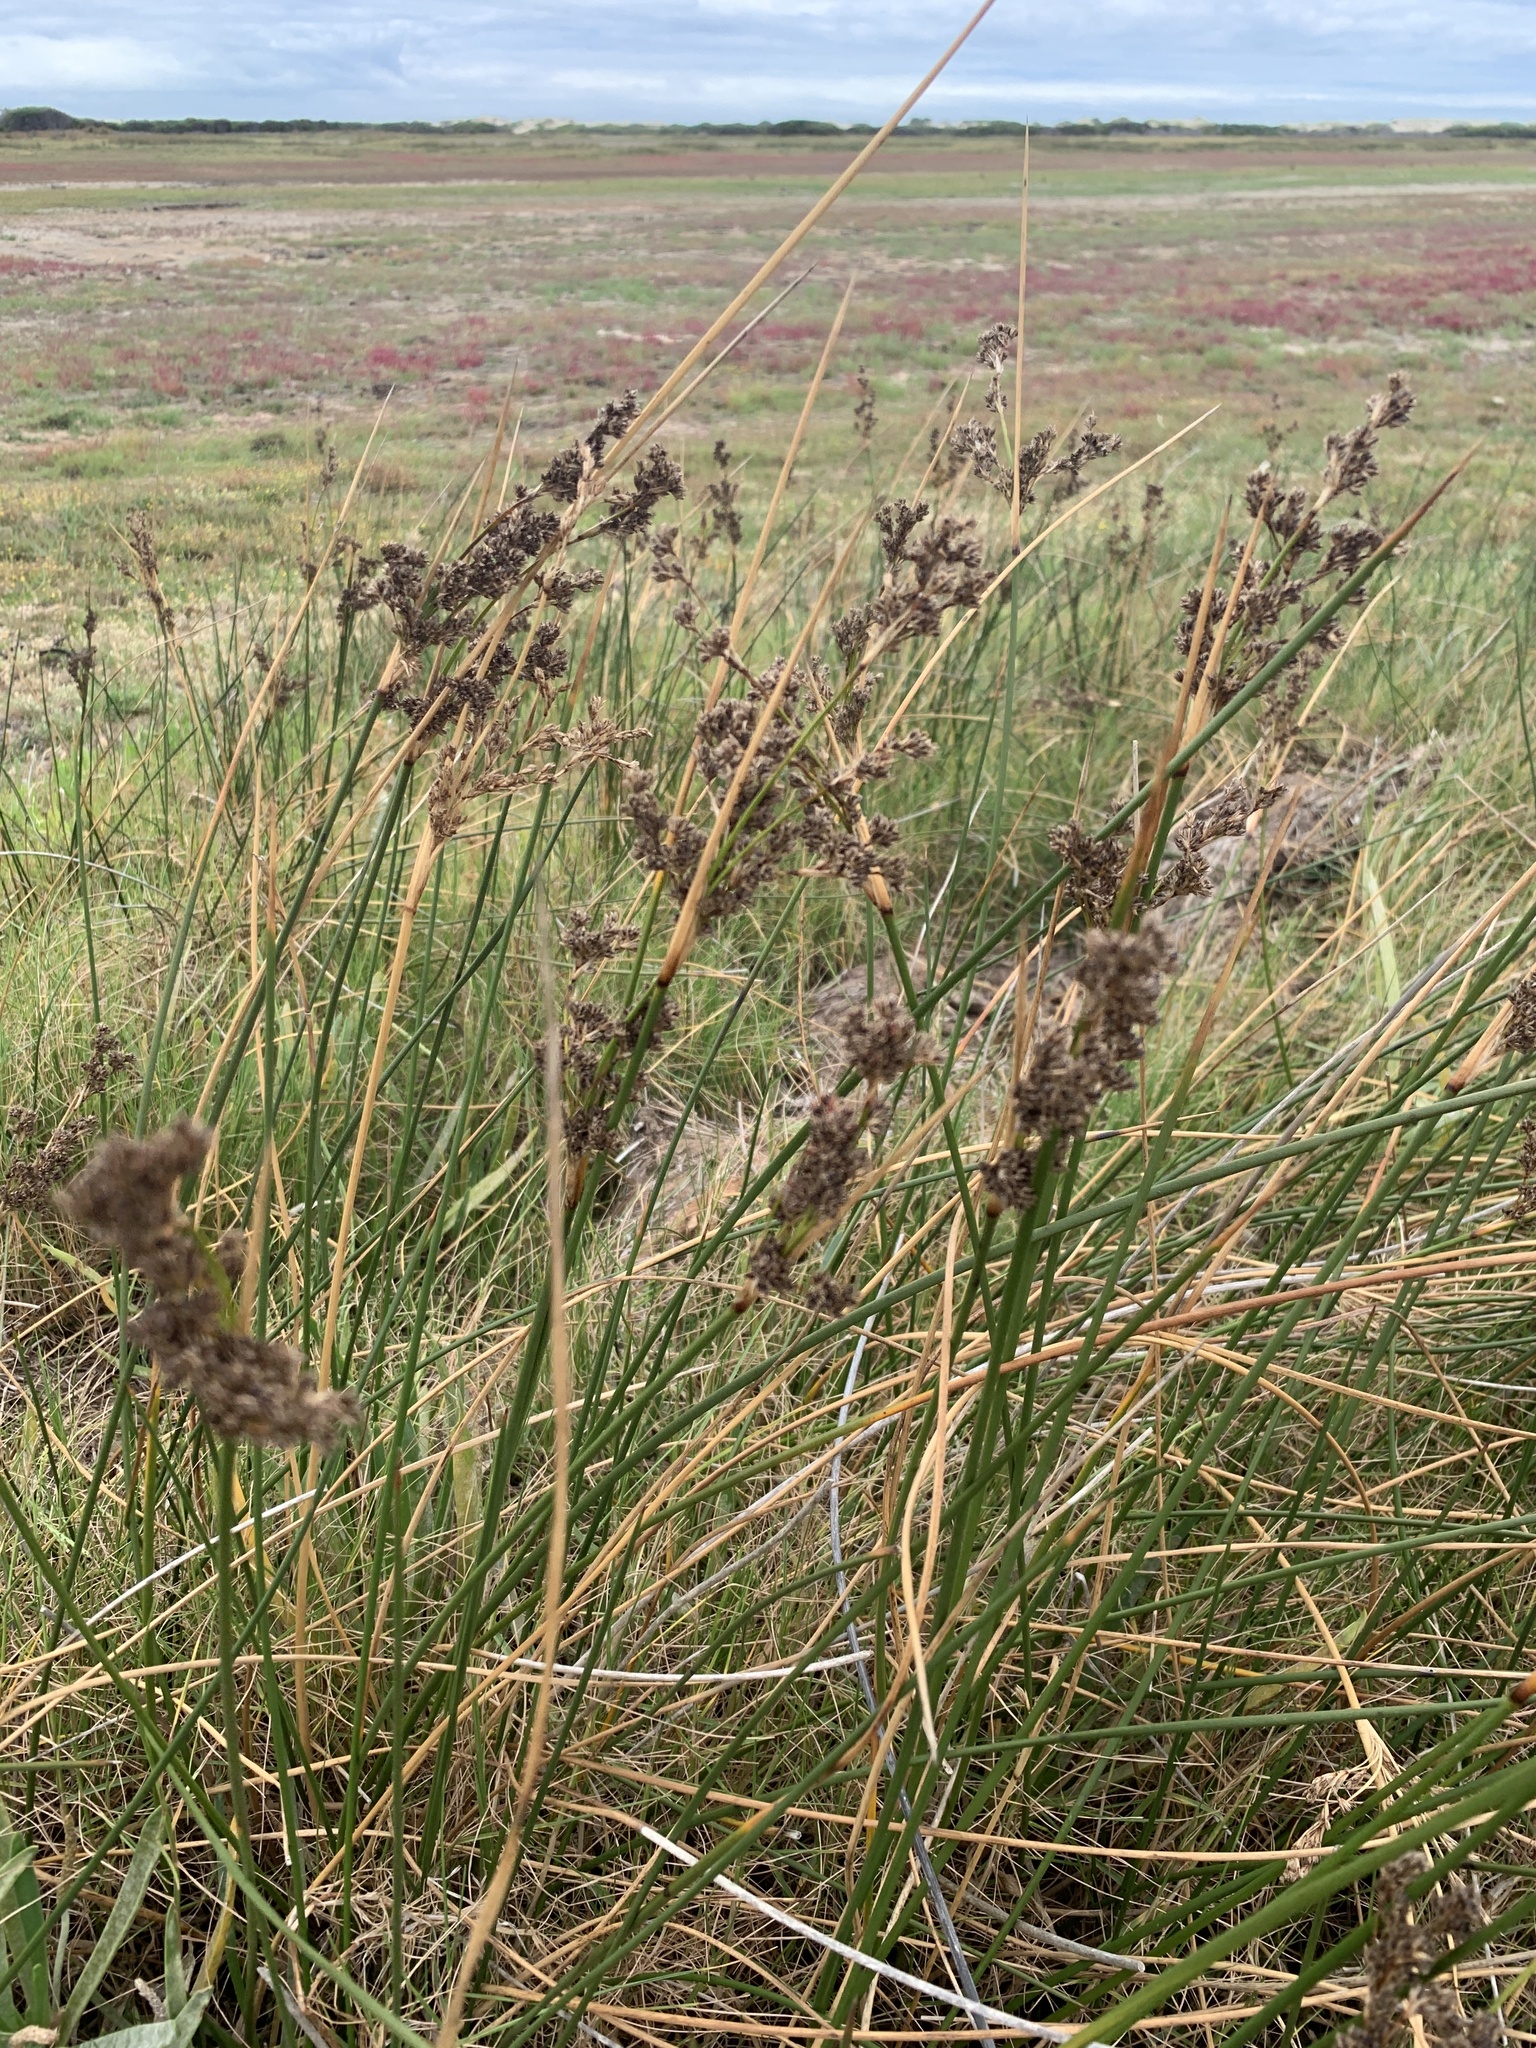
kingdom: Plantae
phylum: Tracheophyta
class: Liliopsida
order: Poales
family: Juncaceae
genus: Juncus
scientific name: Juncus kraussii
